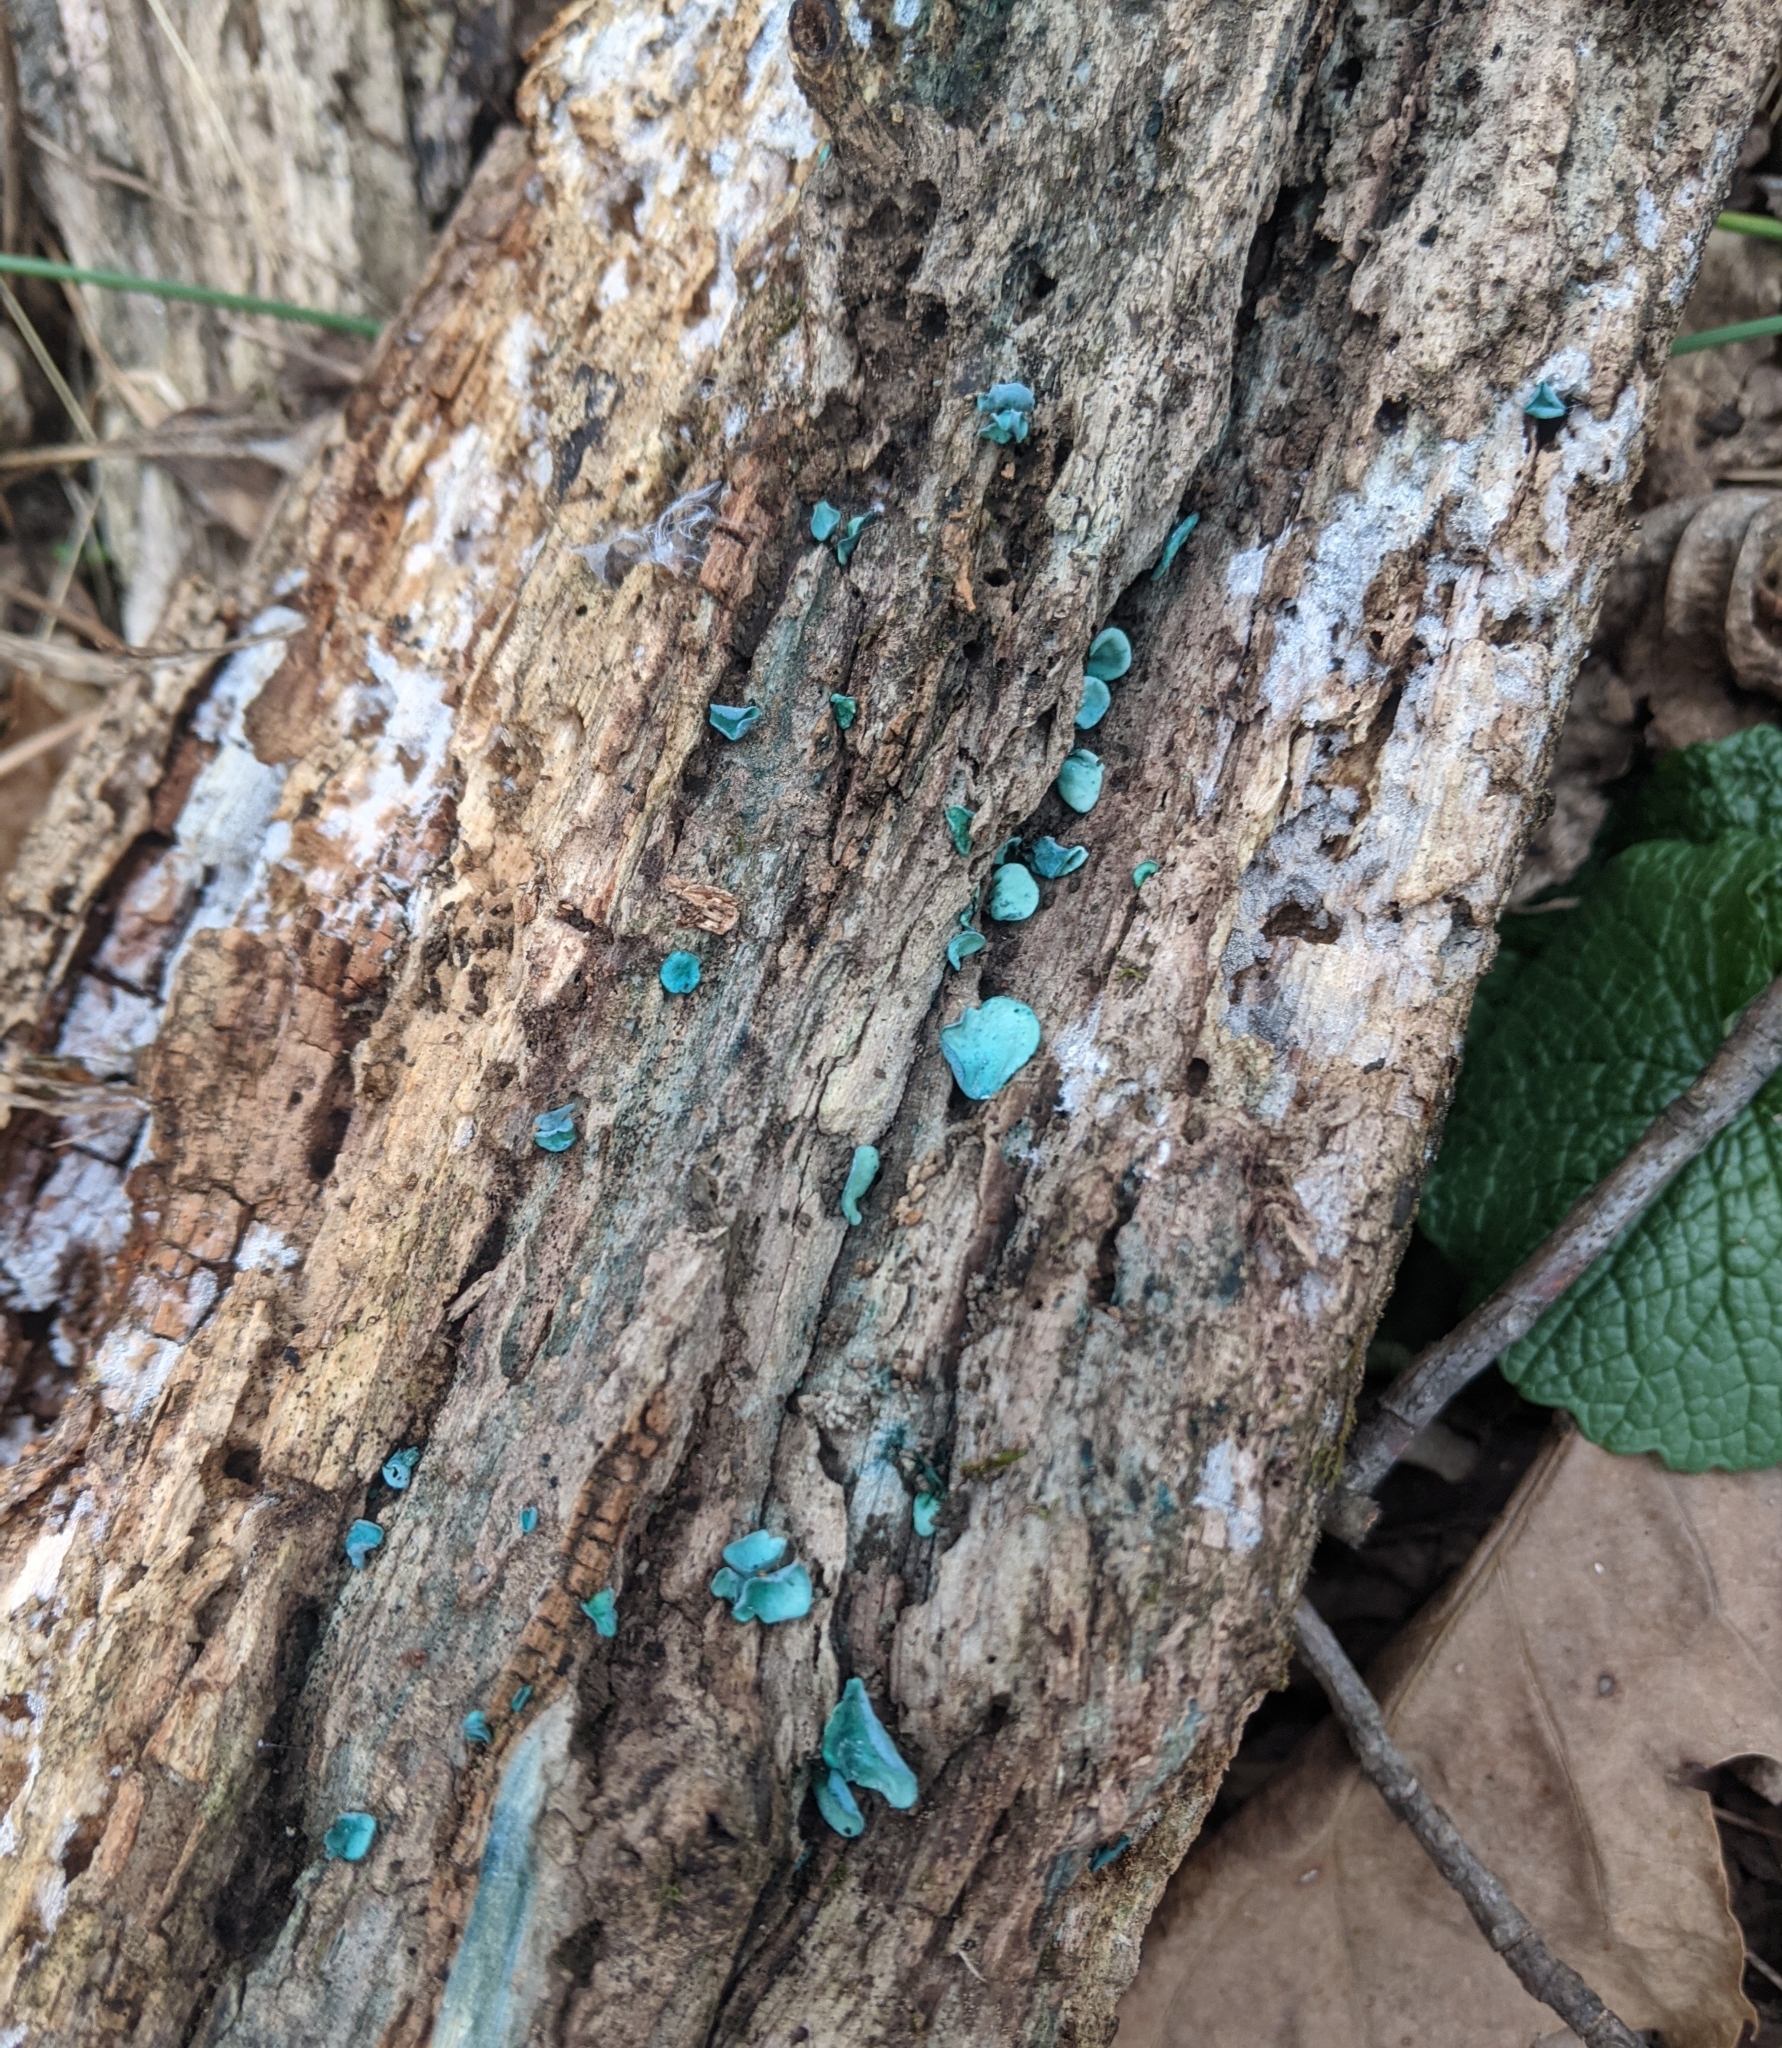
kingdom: Fungi
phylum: Ascomycota
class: Leotiomycetes
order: Helotiales
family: Chlorociboriaceae
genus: Chlorociboria
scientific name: Chlorociboria aeruginascens
